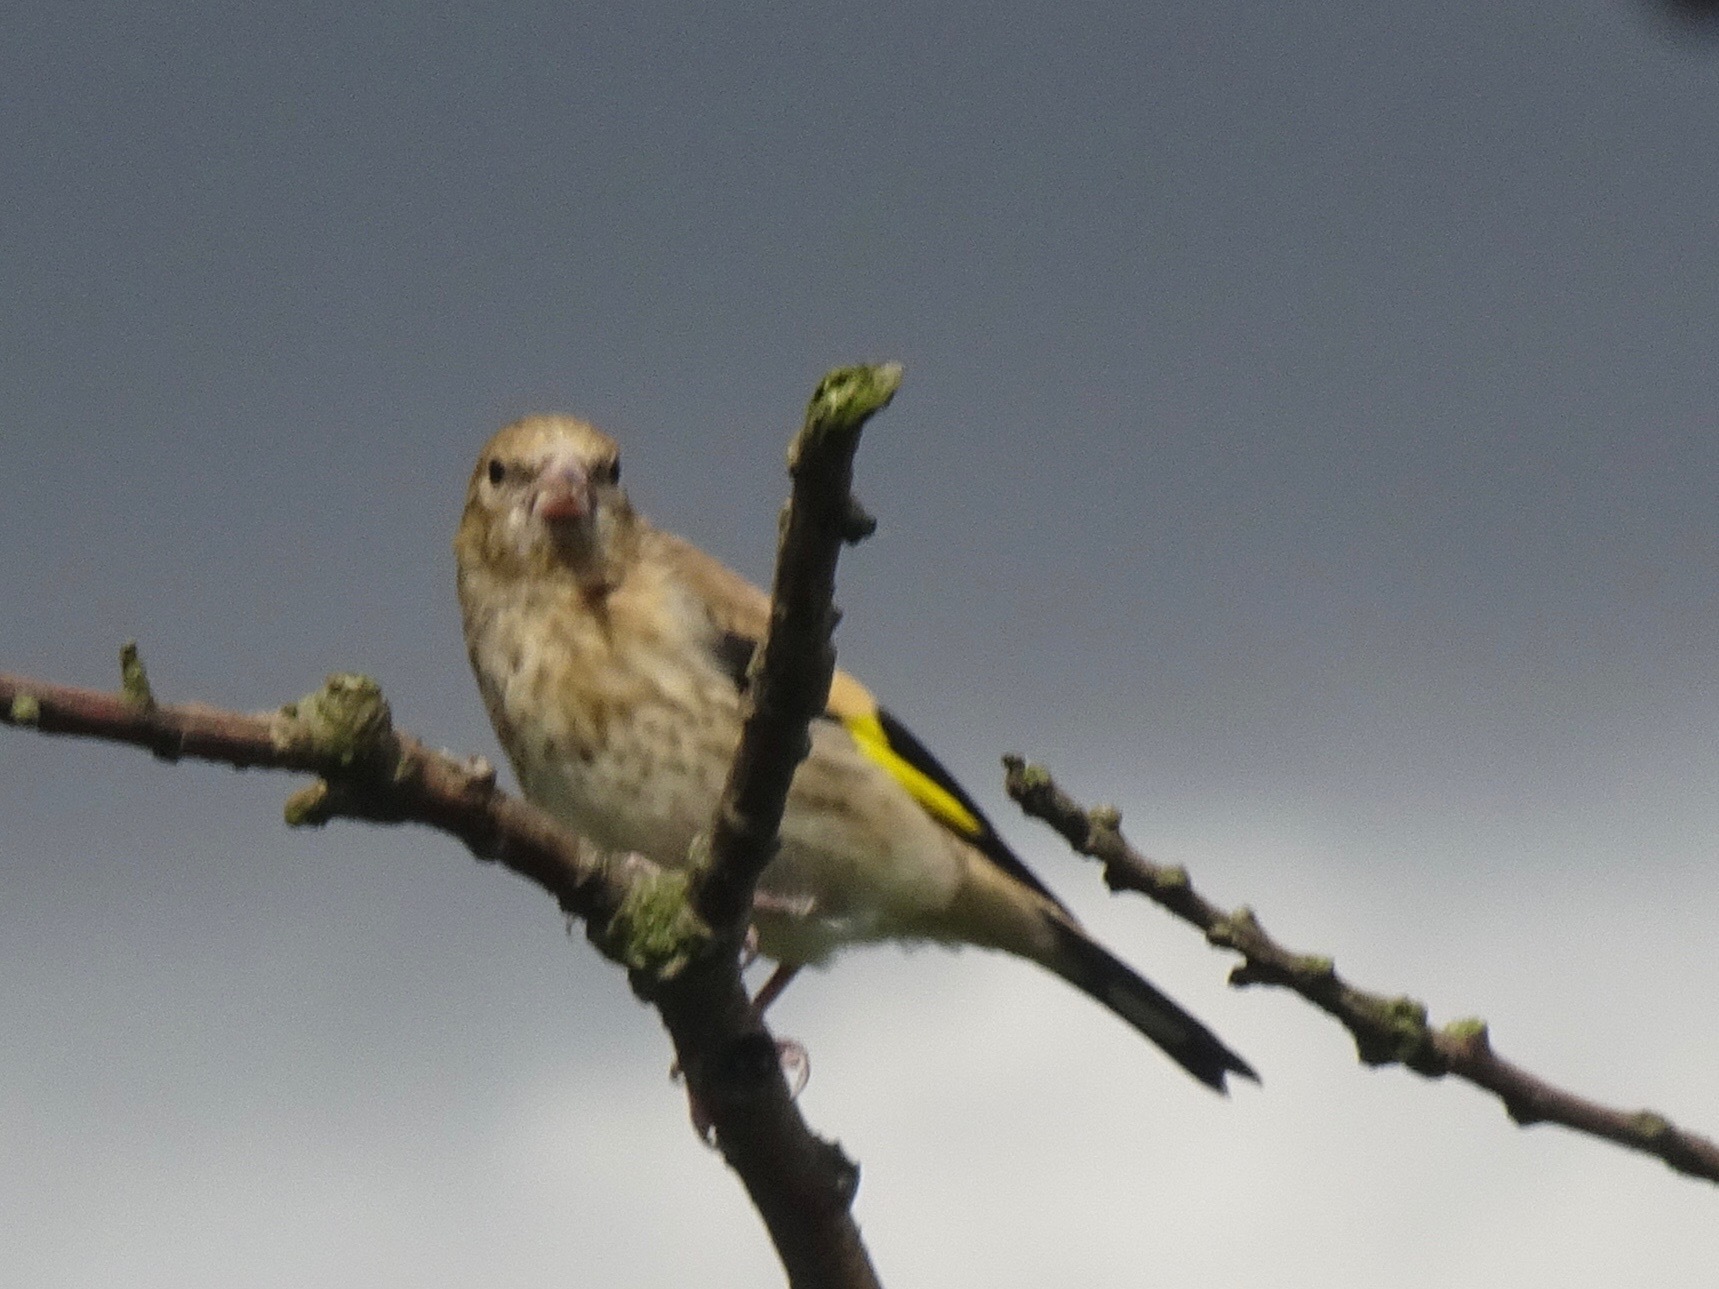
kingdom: Plantae
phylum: Tracheophyta
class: Liliopsida
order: Poales
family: Poaceae
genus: Chloris
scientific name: Chloris chloris
